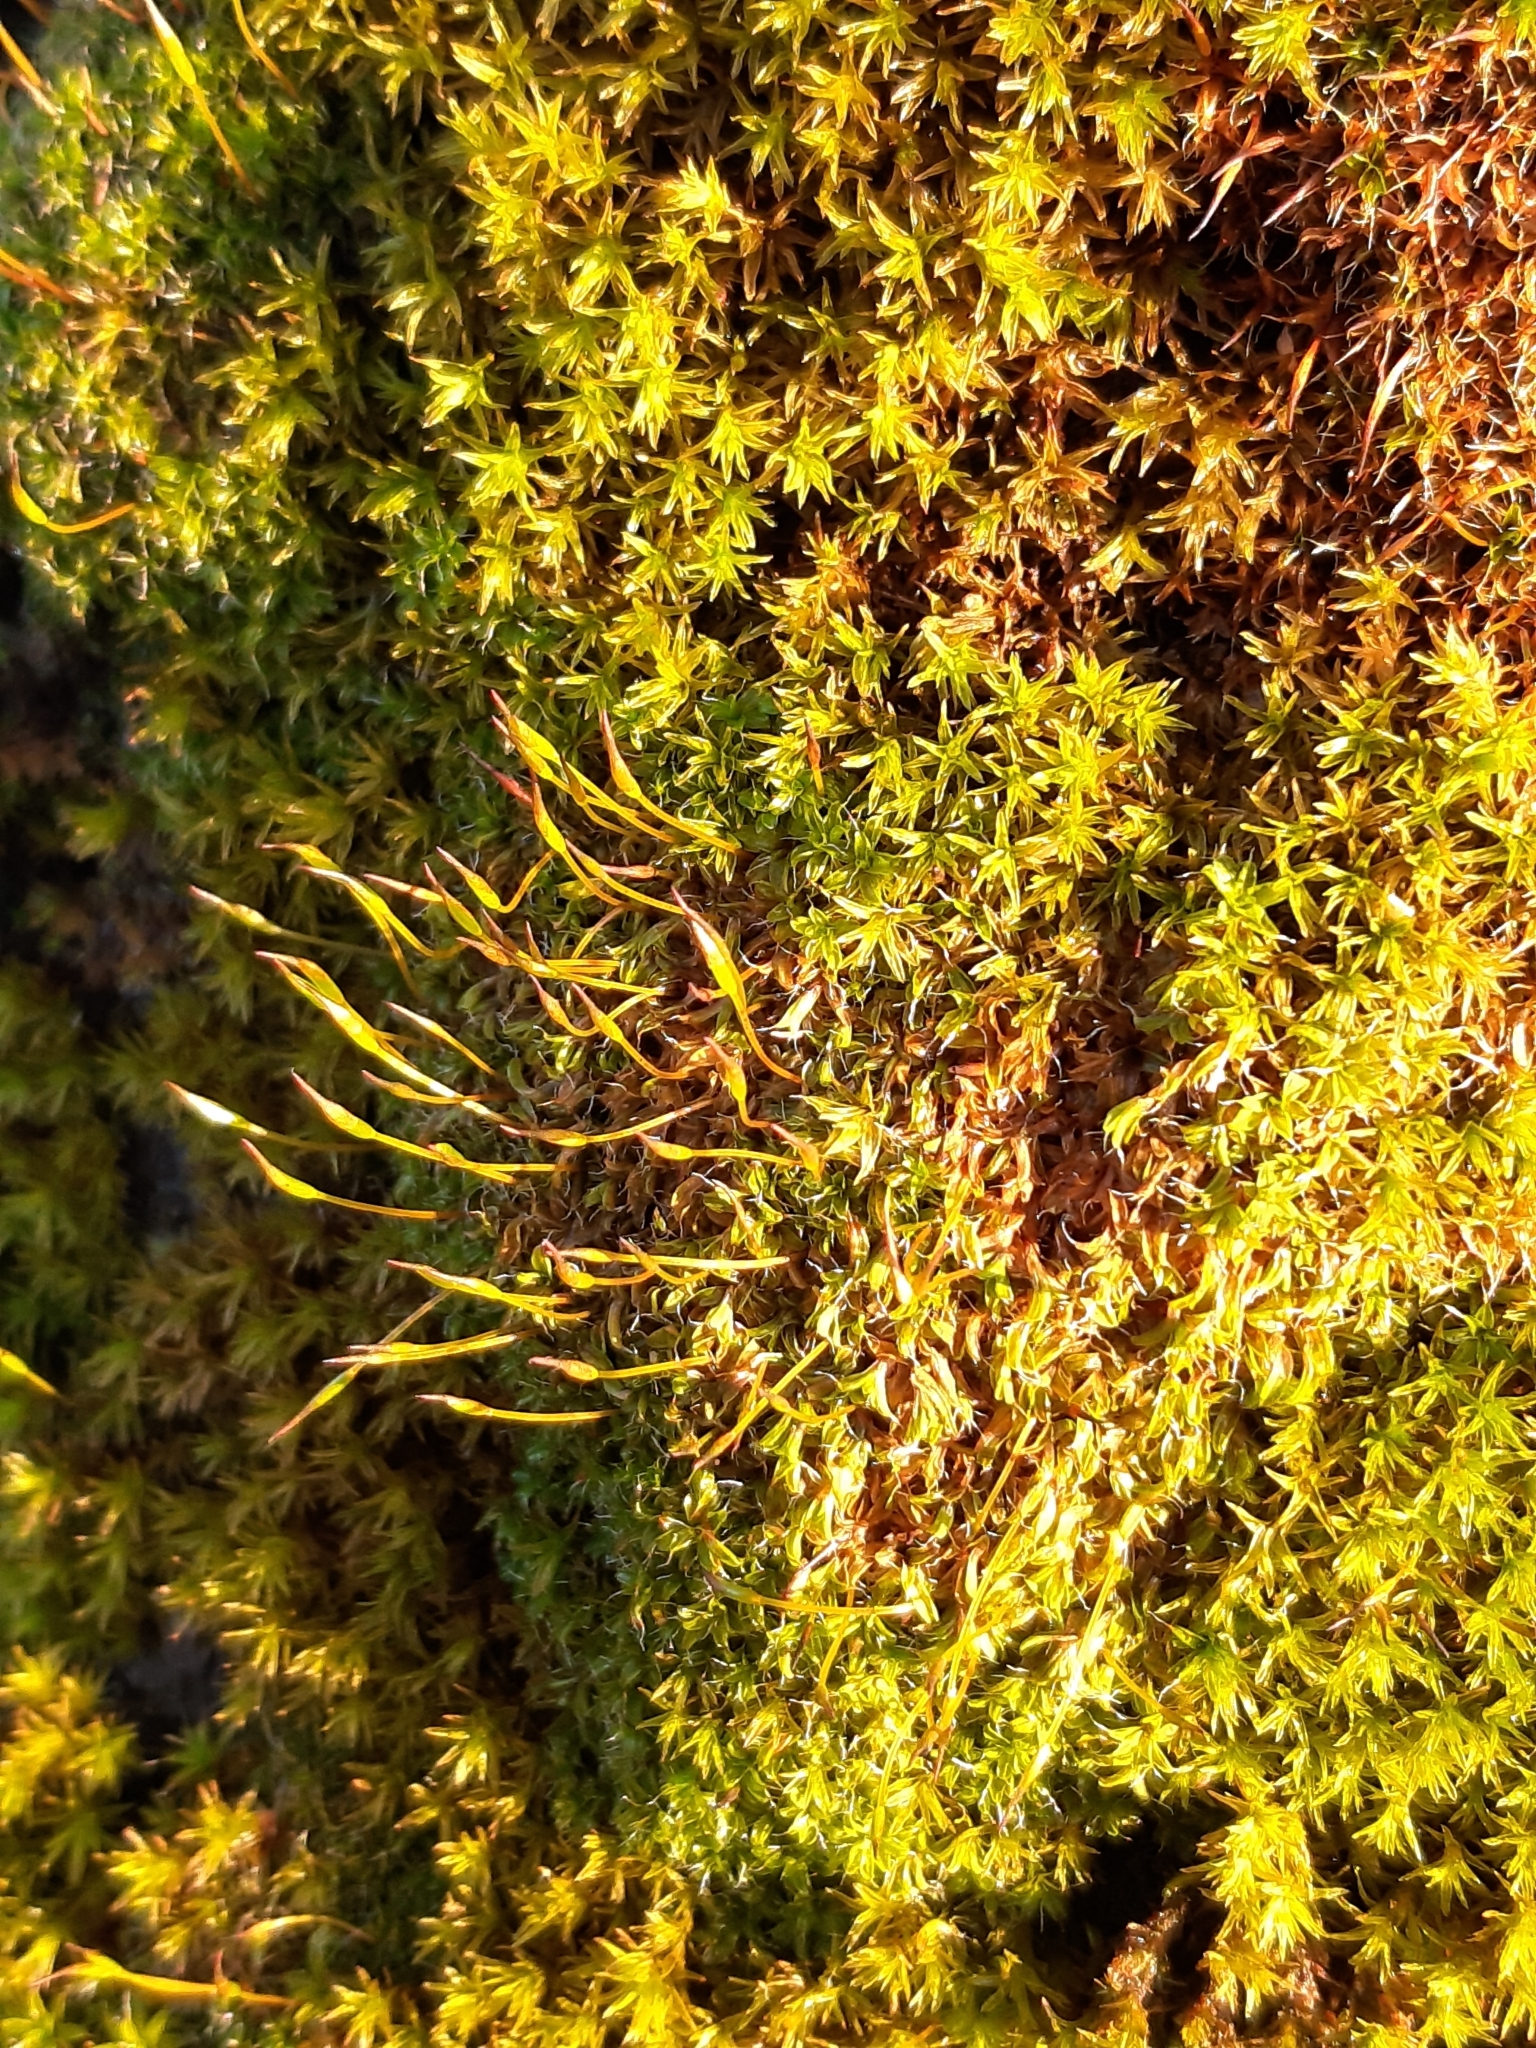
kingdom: Plantae
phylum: Bryophyta
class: Bryopsida
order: Pottiales
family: Pottiaceae
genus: Syntrichia
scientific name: Syntrichia ruralis
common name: Sidewalk screw moss
